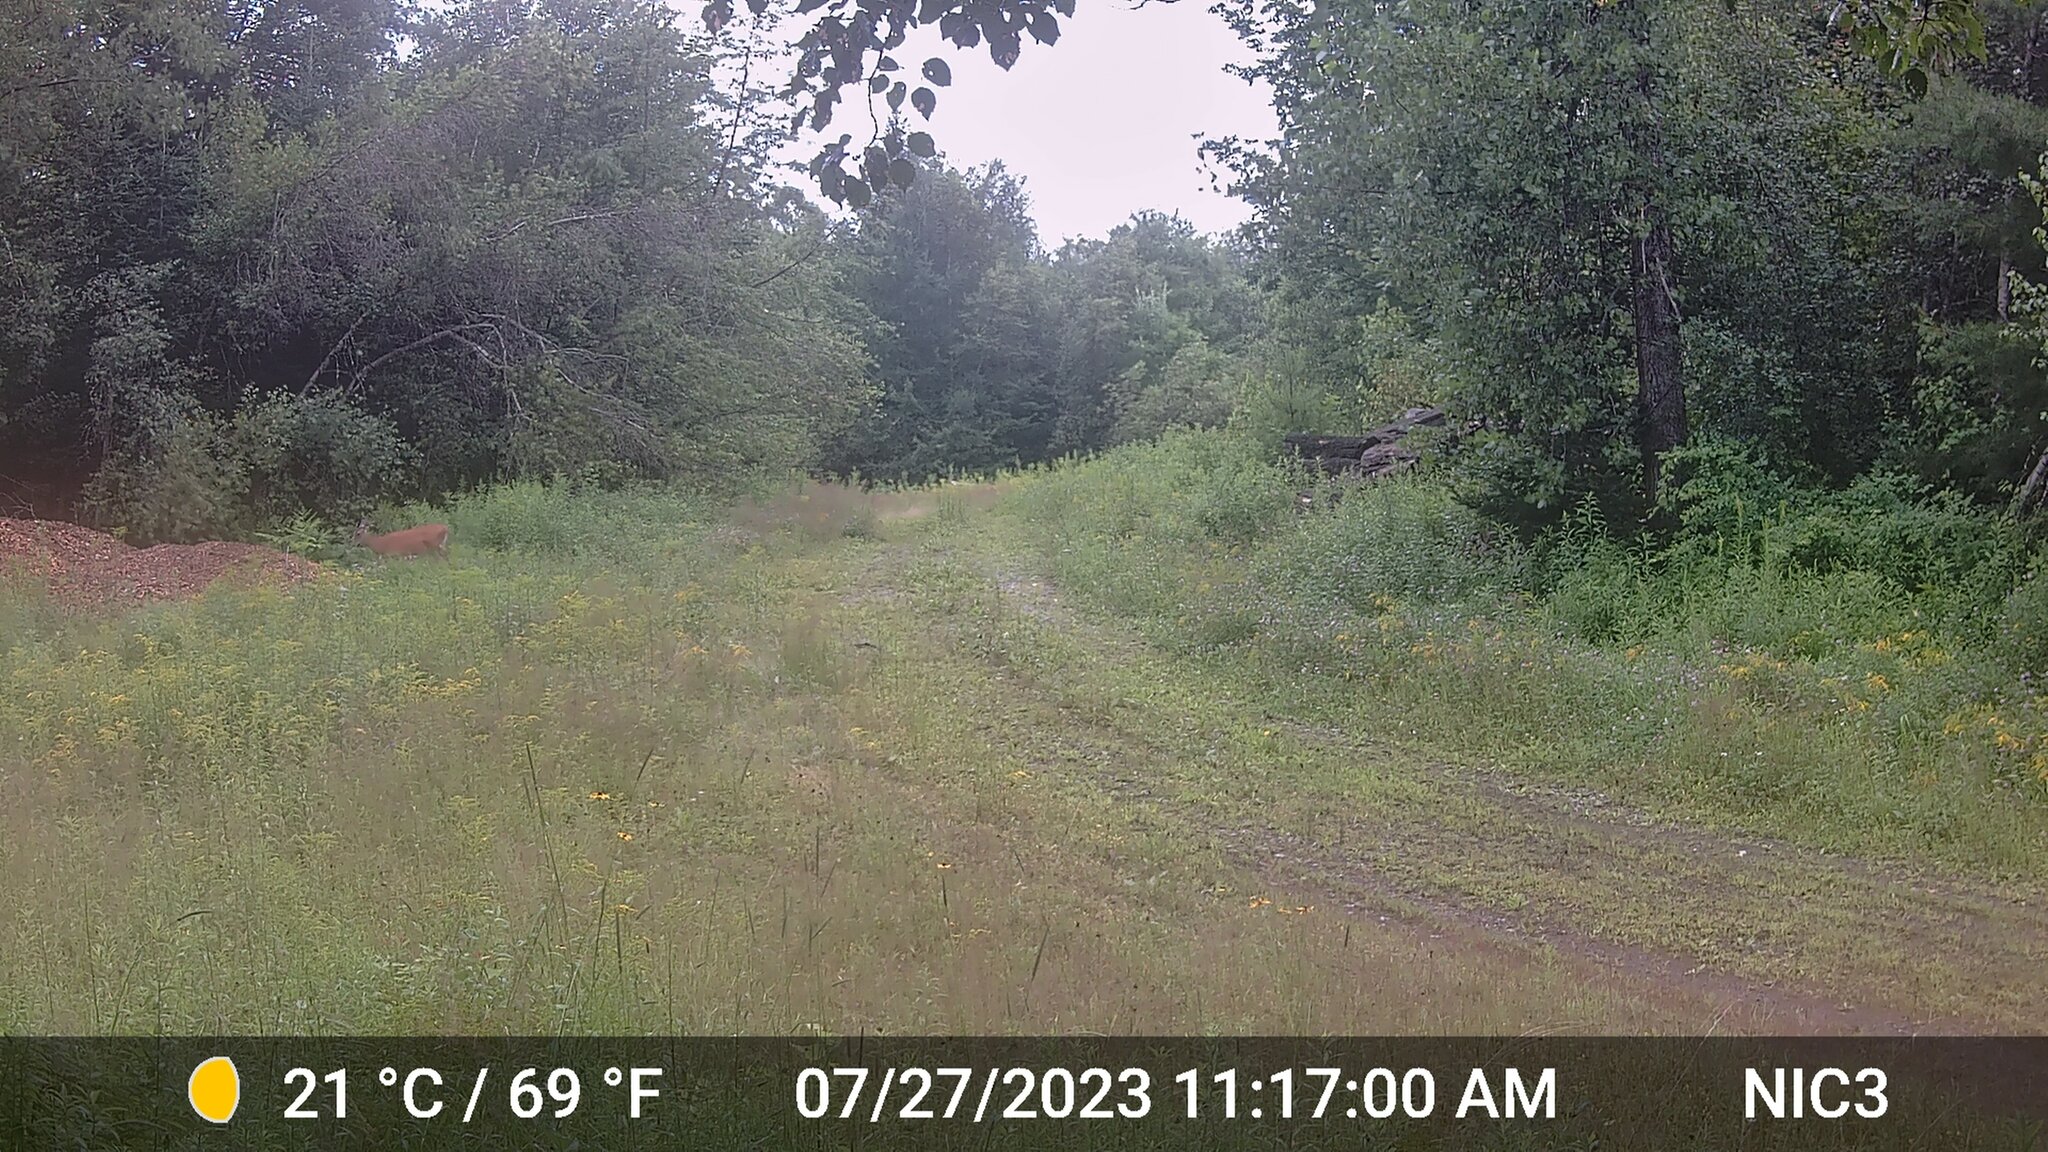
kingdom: Animalia
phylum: Chordata
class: Mammalia
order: Artiodactyla
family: Cervidae
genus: Odocoileus
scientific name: Odocoileus virginianus
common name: White-tailed deer
